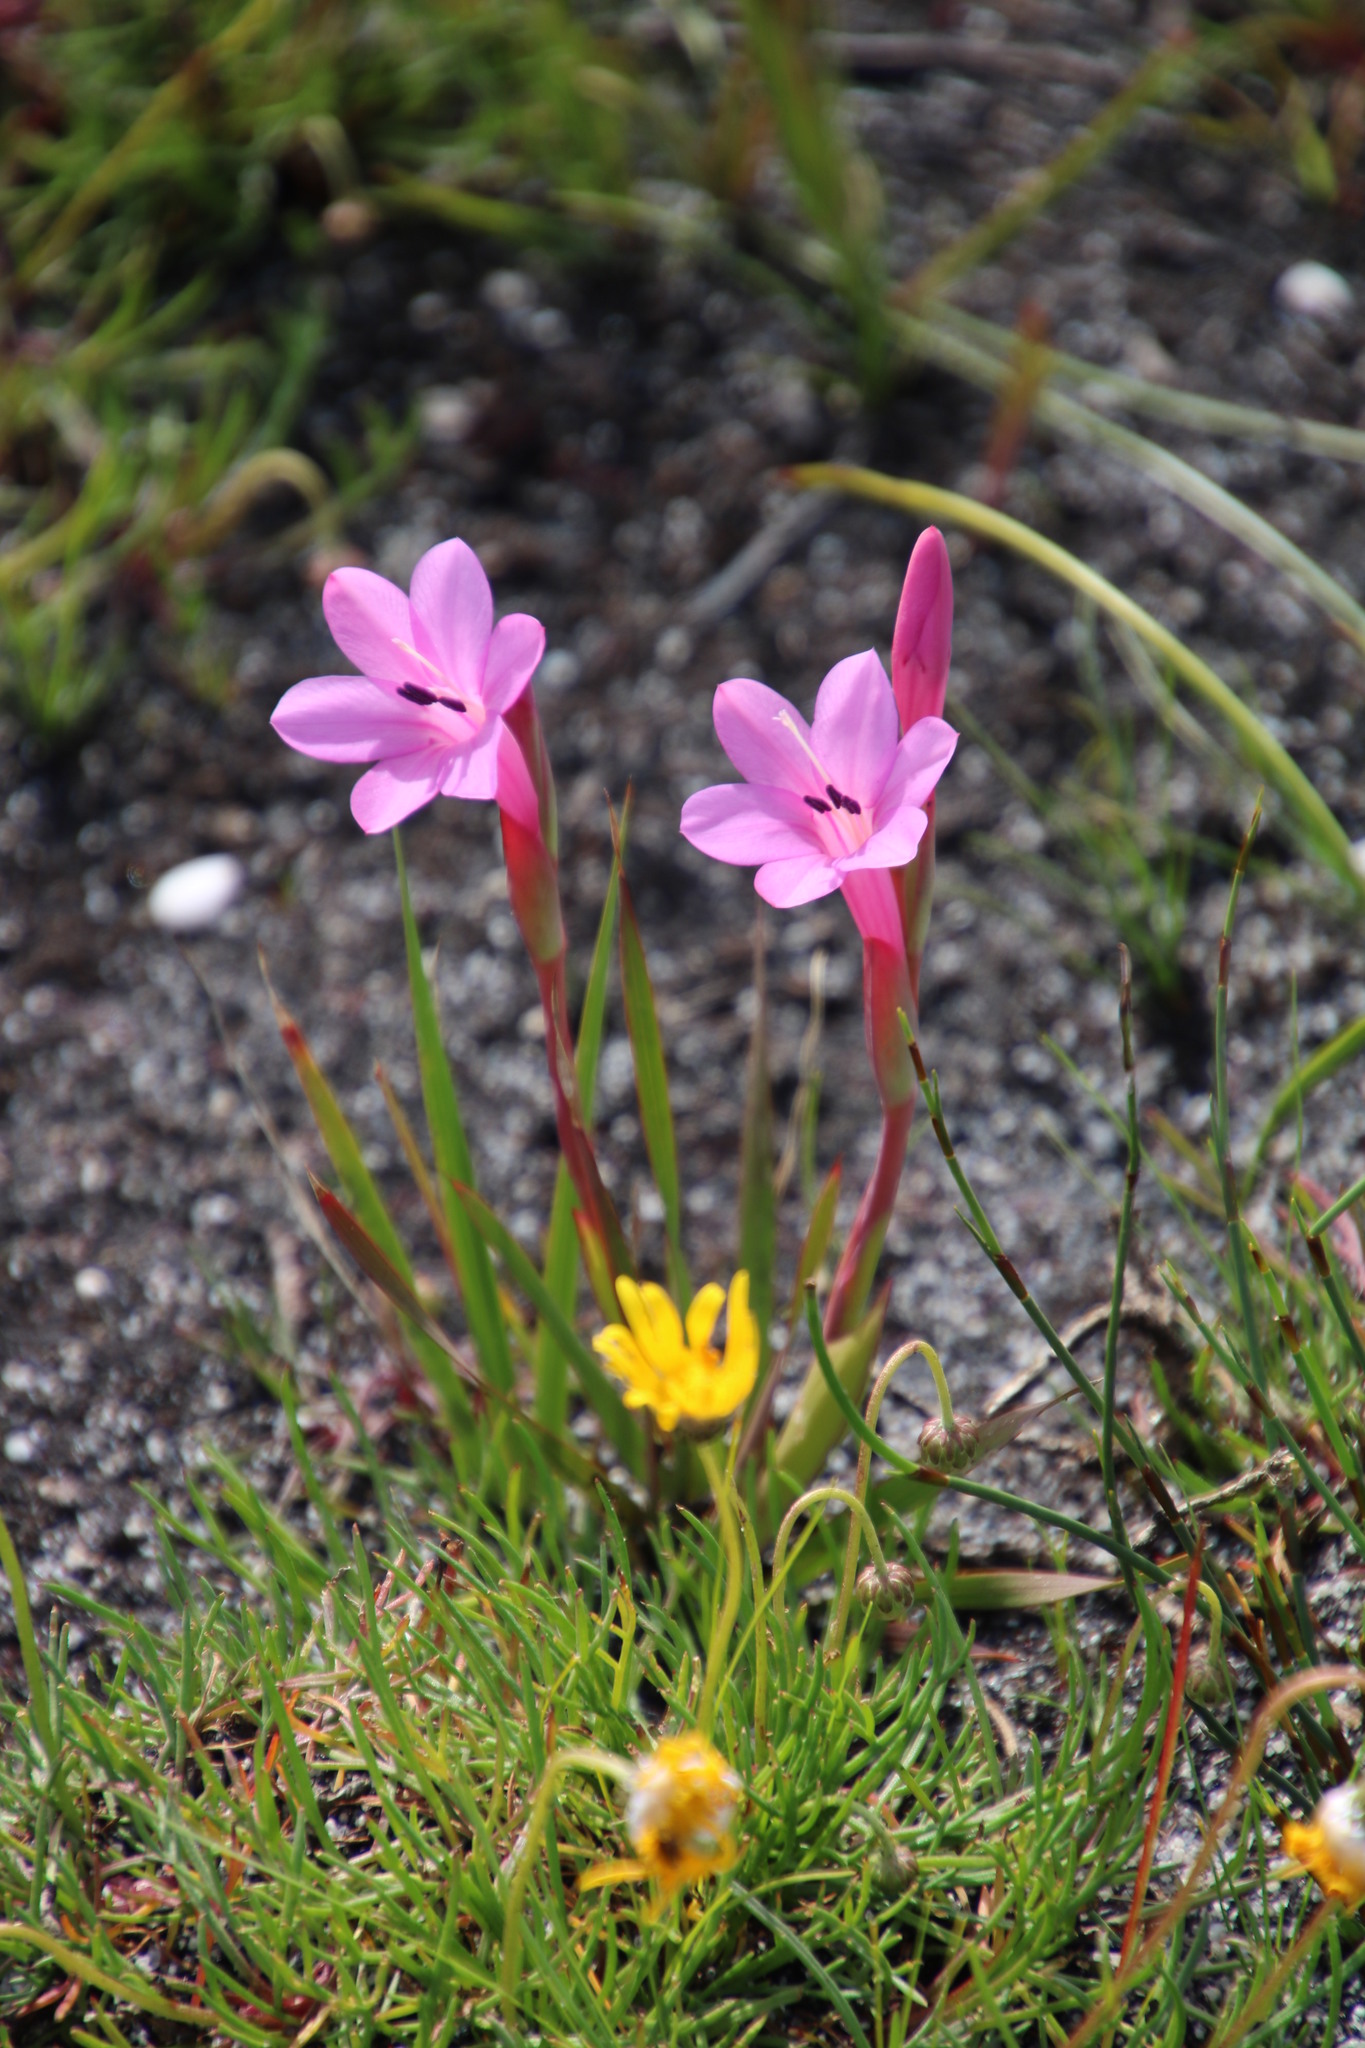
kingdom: Plantae
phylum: Tracheophyta
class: Liliopsida
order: Asparagales
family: Iridaceae
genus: Watsonia
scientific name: Watsonia coccinea
